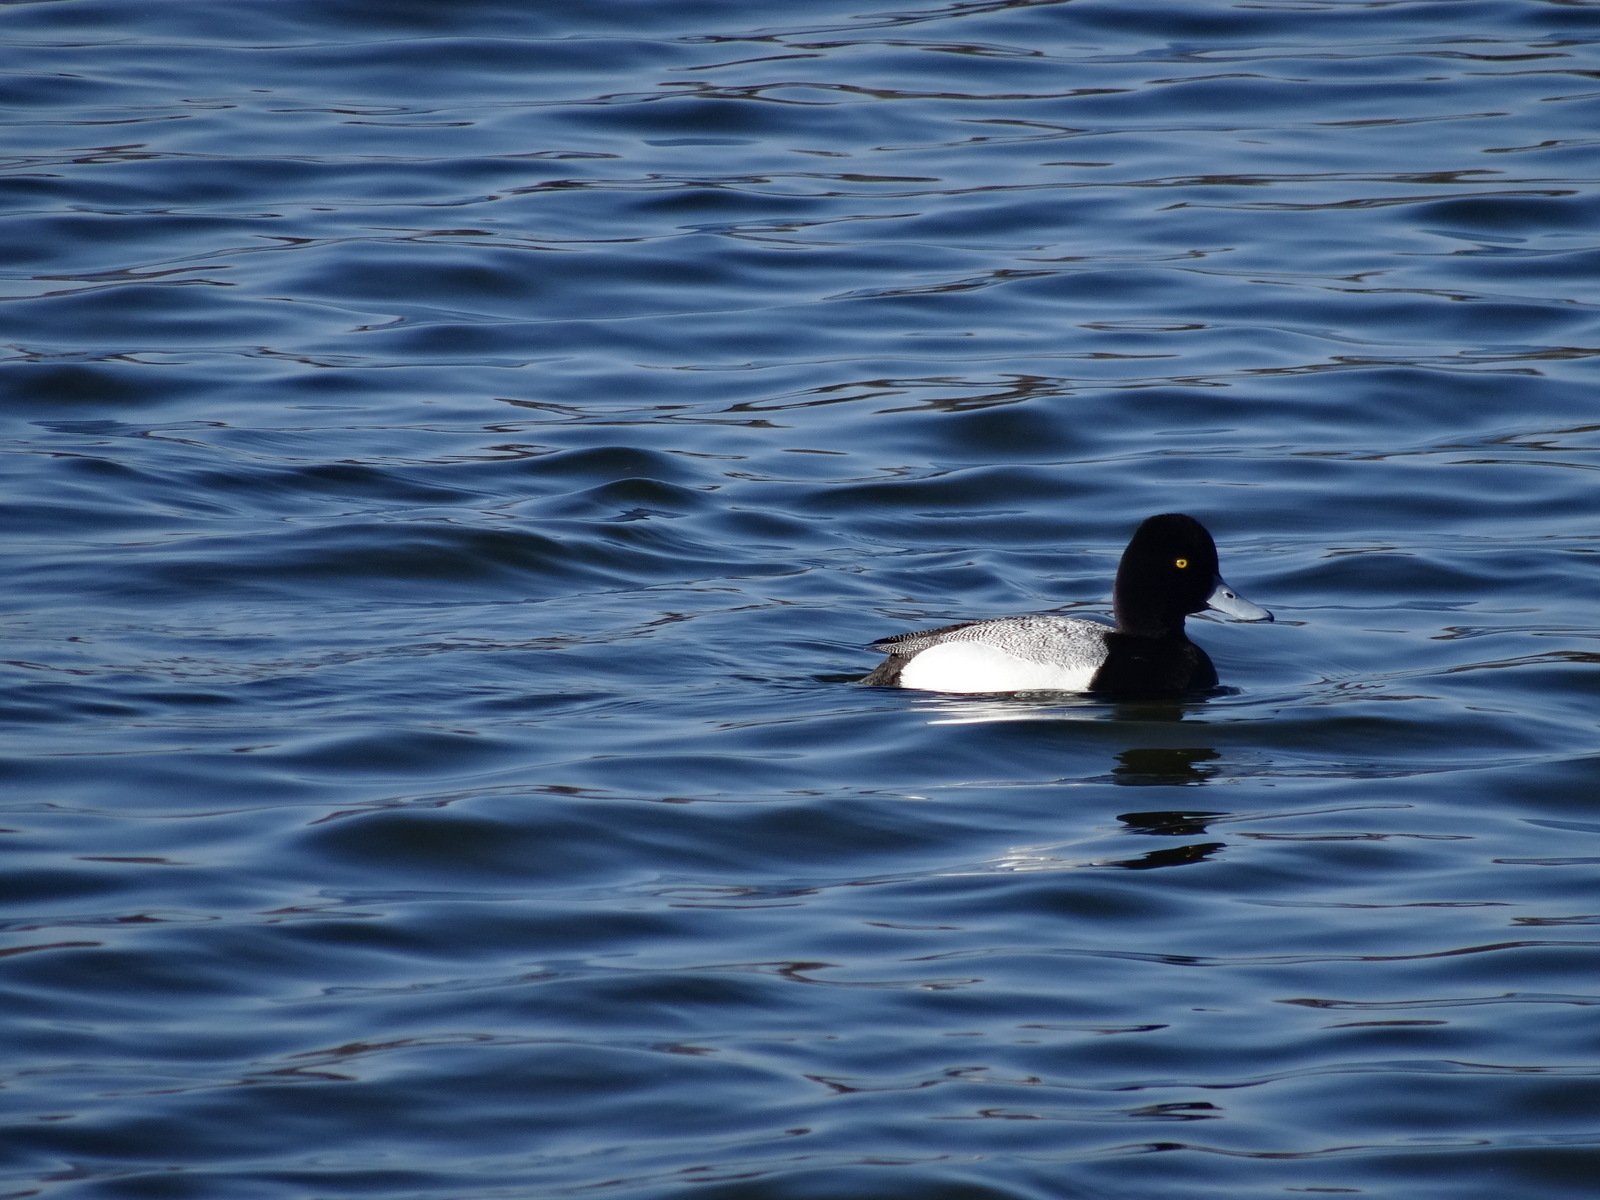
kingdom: Animalia
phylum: Chordata
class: Aves
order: Anseriformes
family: Anatidae
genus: Aythya
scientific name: Aythya affinis
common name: Lesser scaup
